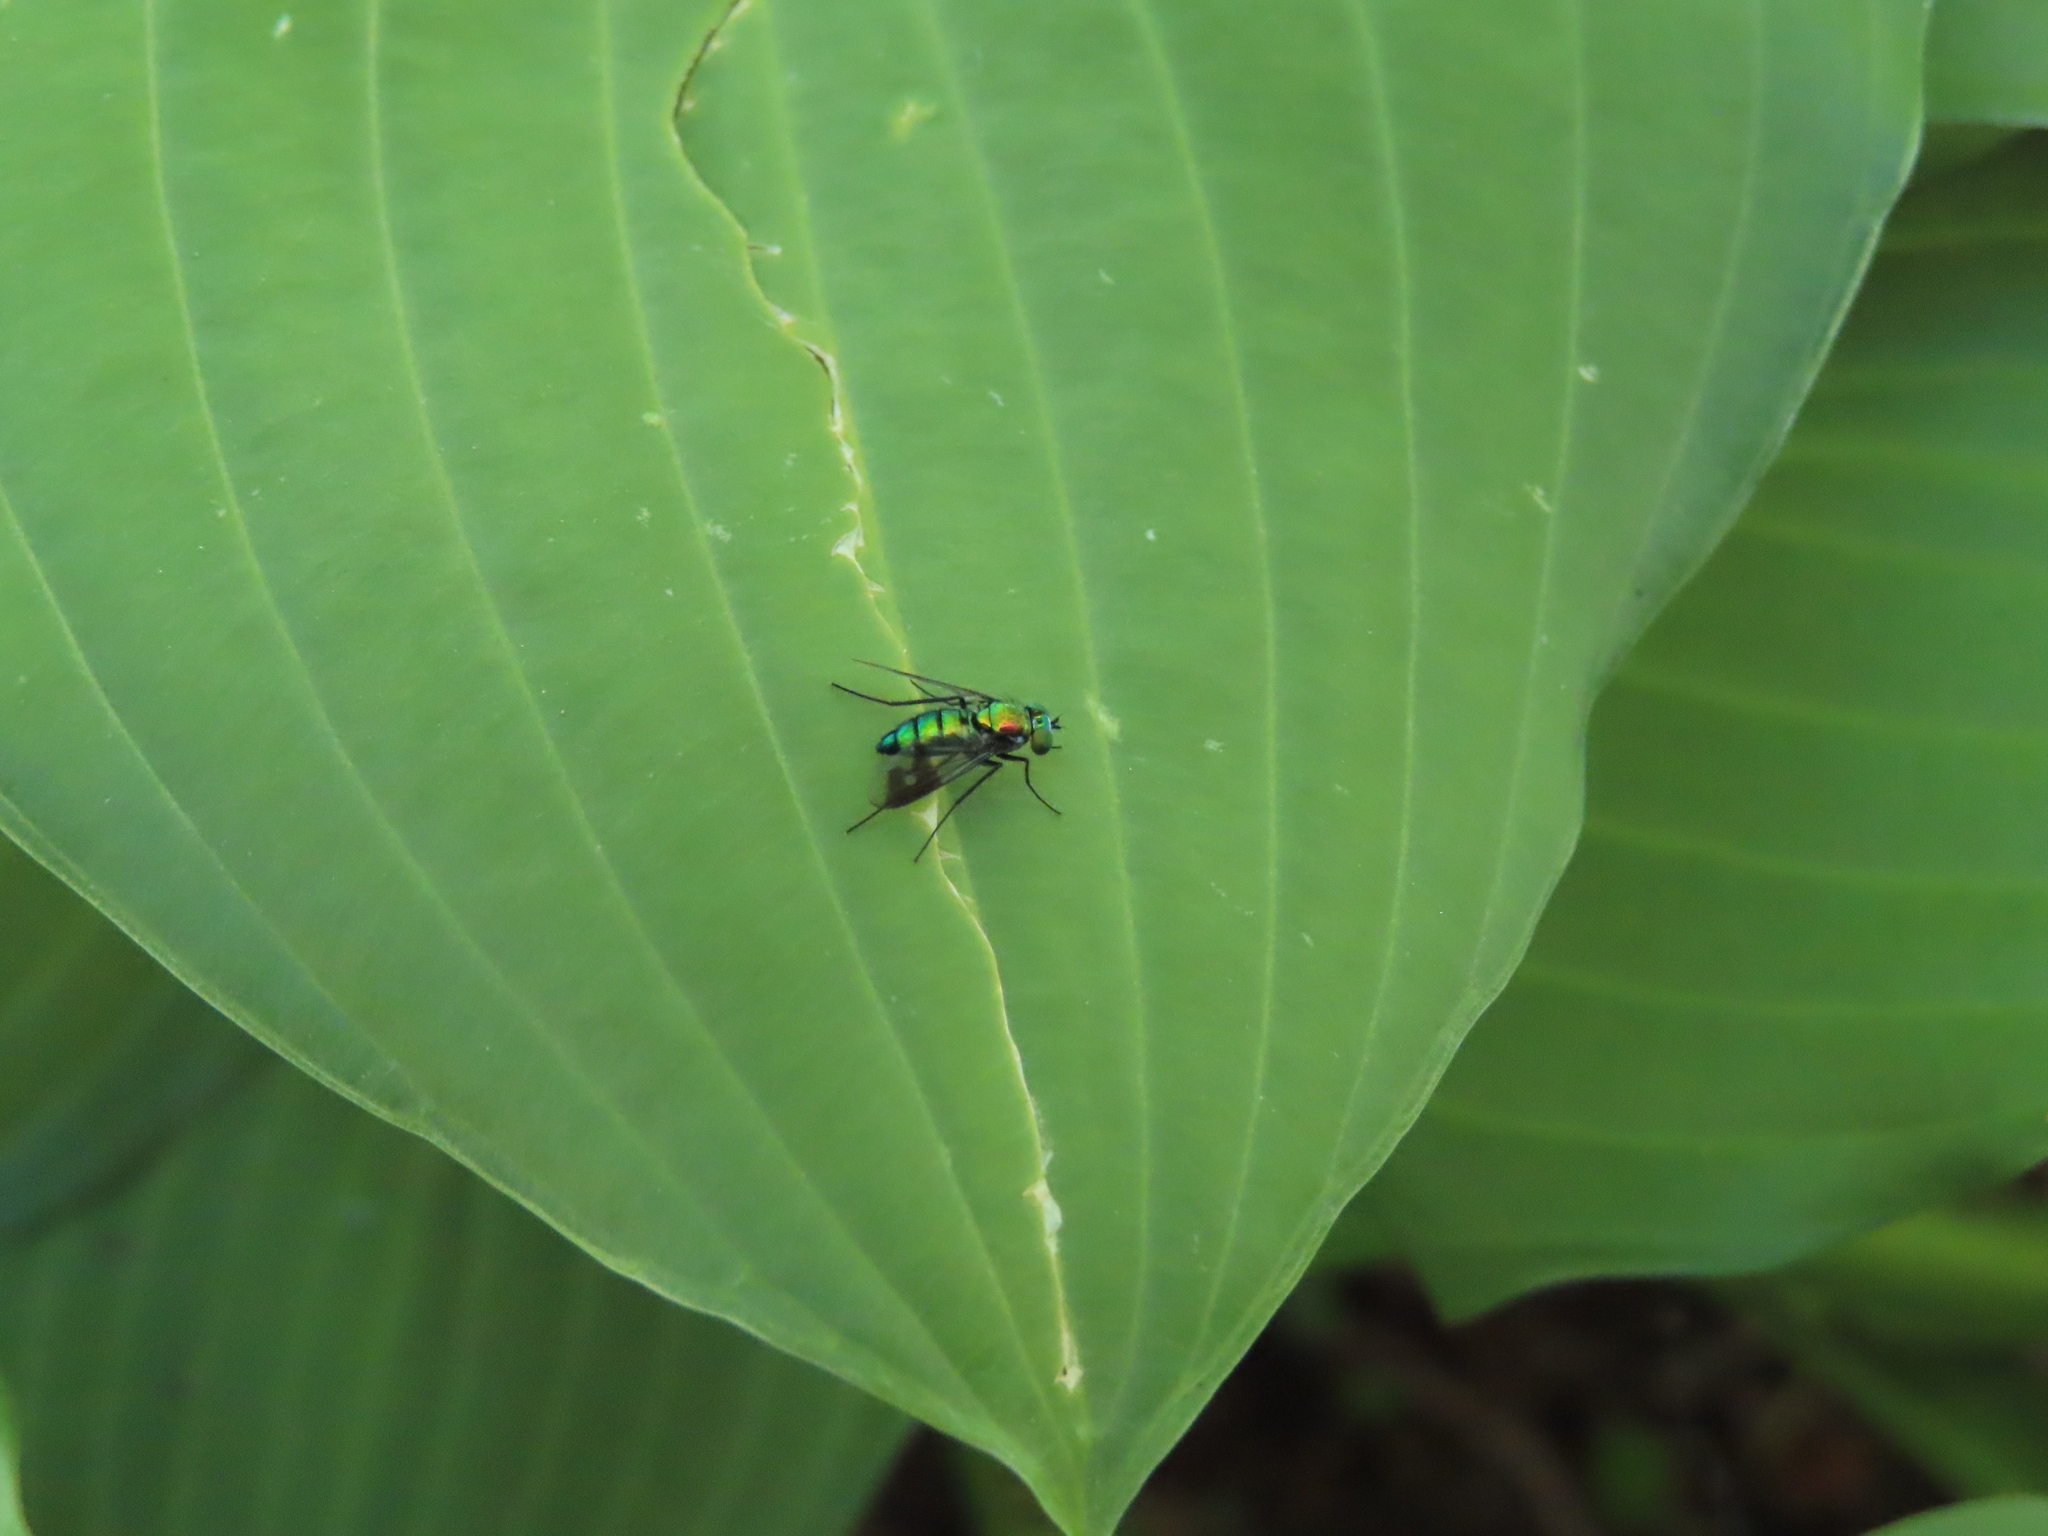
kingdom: Animalia
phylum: Arthropoda
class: Insecta
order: Diptera
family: Dolichopodidae
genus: Condylostylus
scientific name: Condylostylus patibulatus
